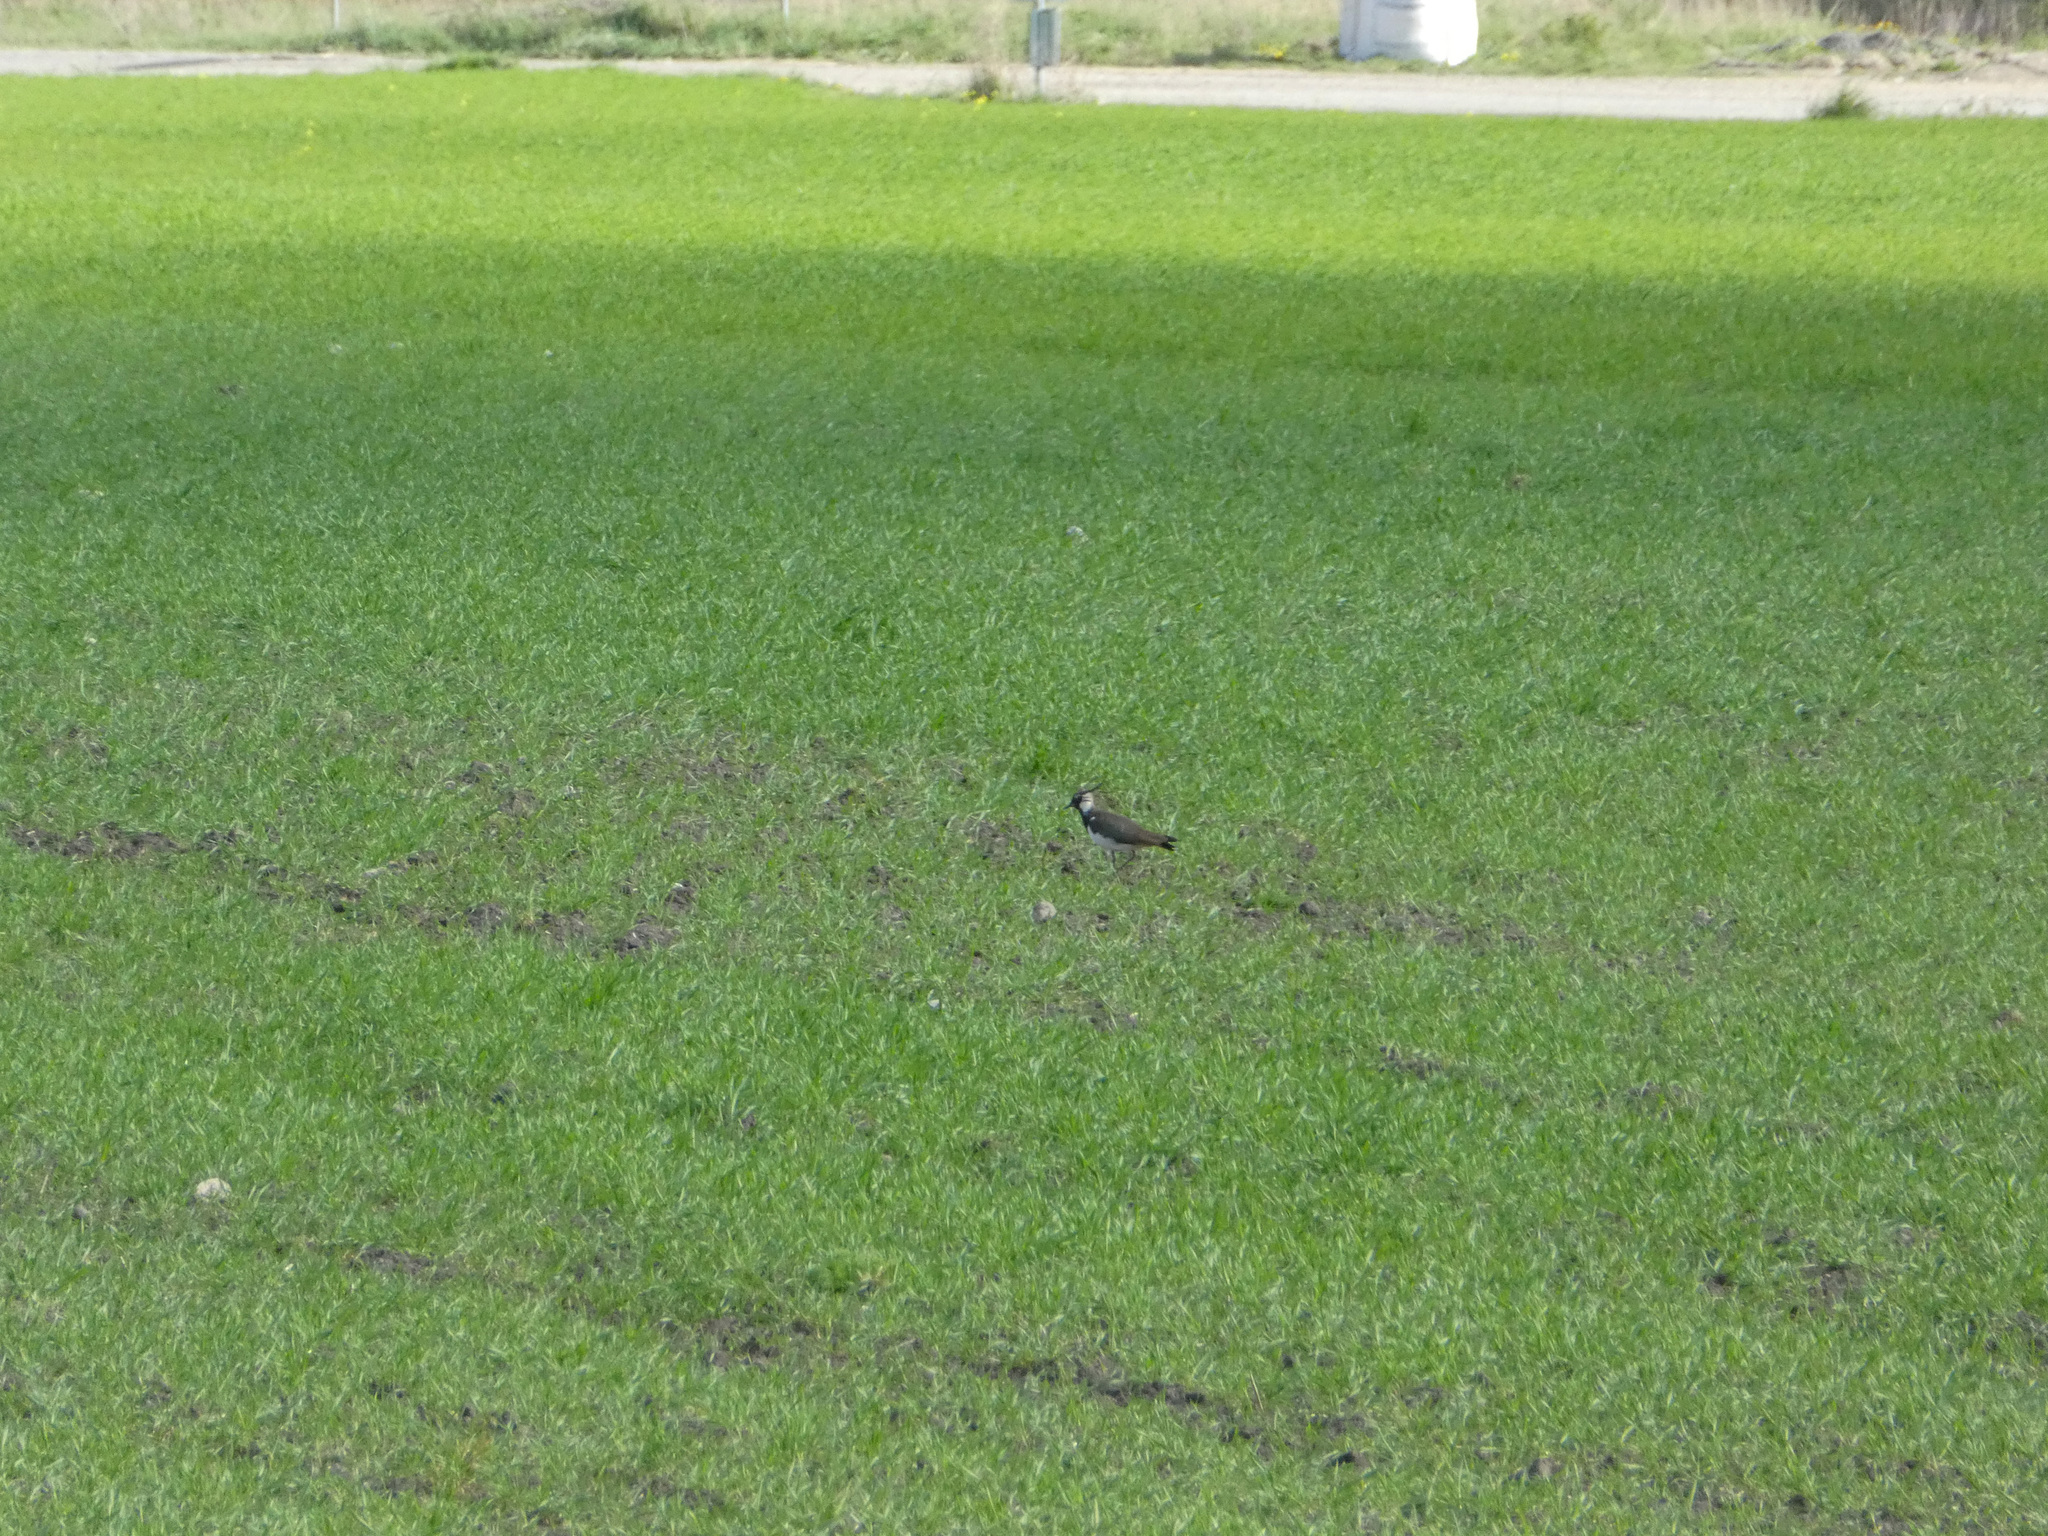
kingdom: Animalia
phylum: Chordata
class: Aves
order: Charadriiformes
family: Charadriidae
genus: Vanellus
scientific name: Vanellus vanellus
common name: Northern lapwing
